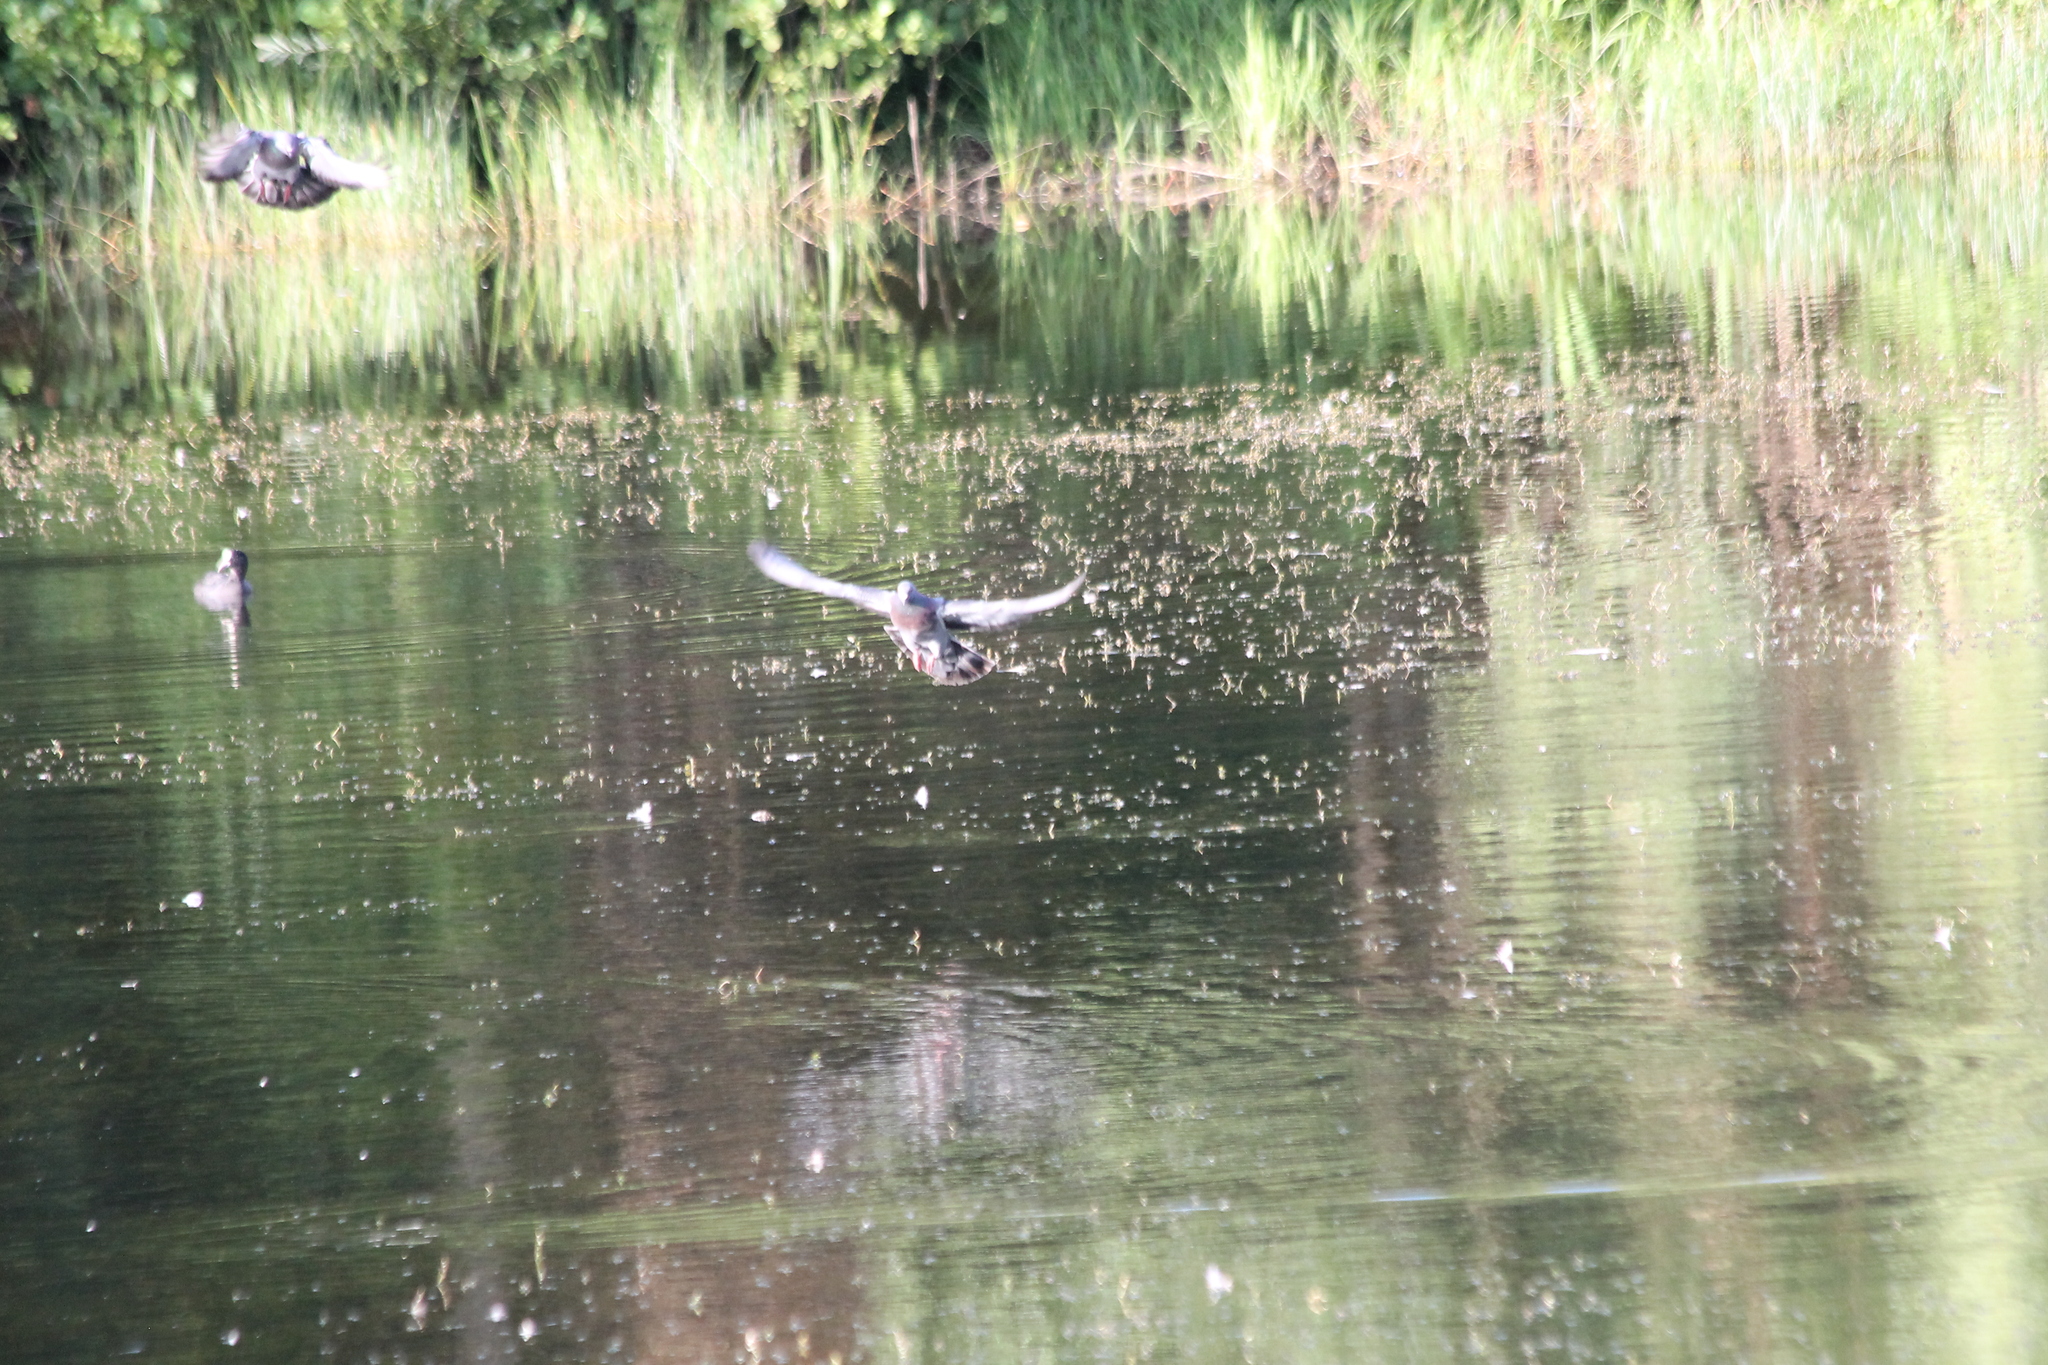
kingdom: Animalia
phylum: Chordata
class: Aves
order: Columbiformes
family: Columbidae
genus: Columba
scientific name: Columba livia
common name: Rock pigeon
